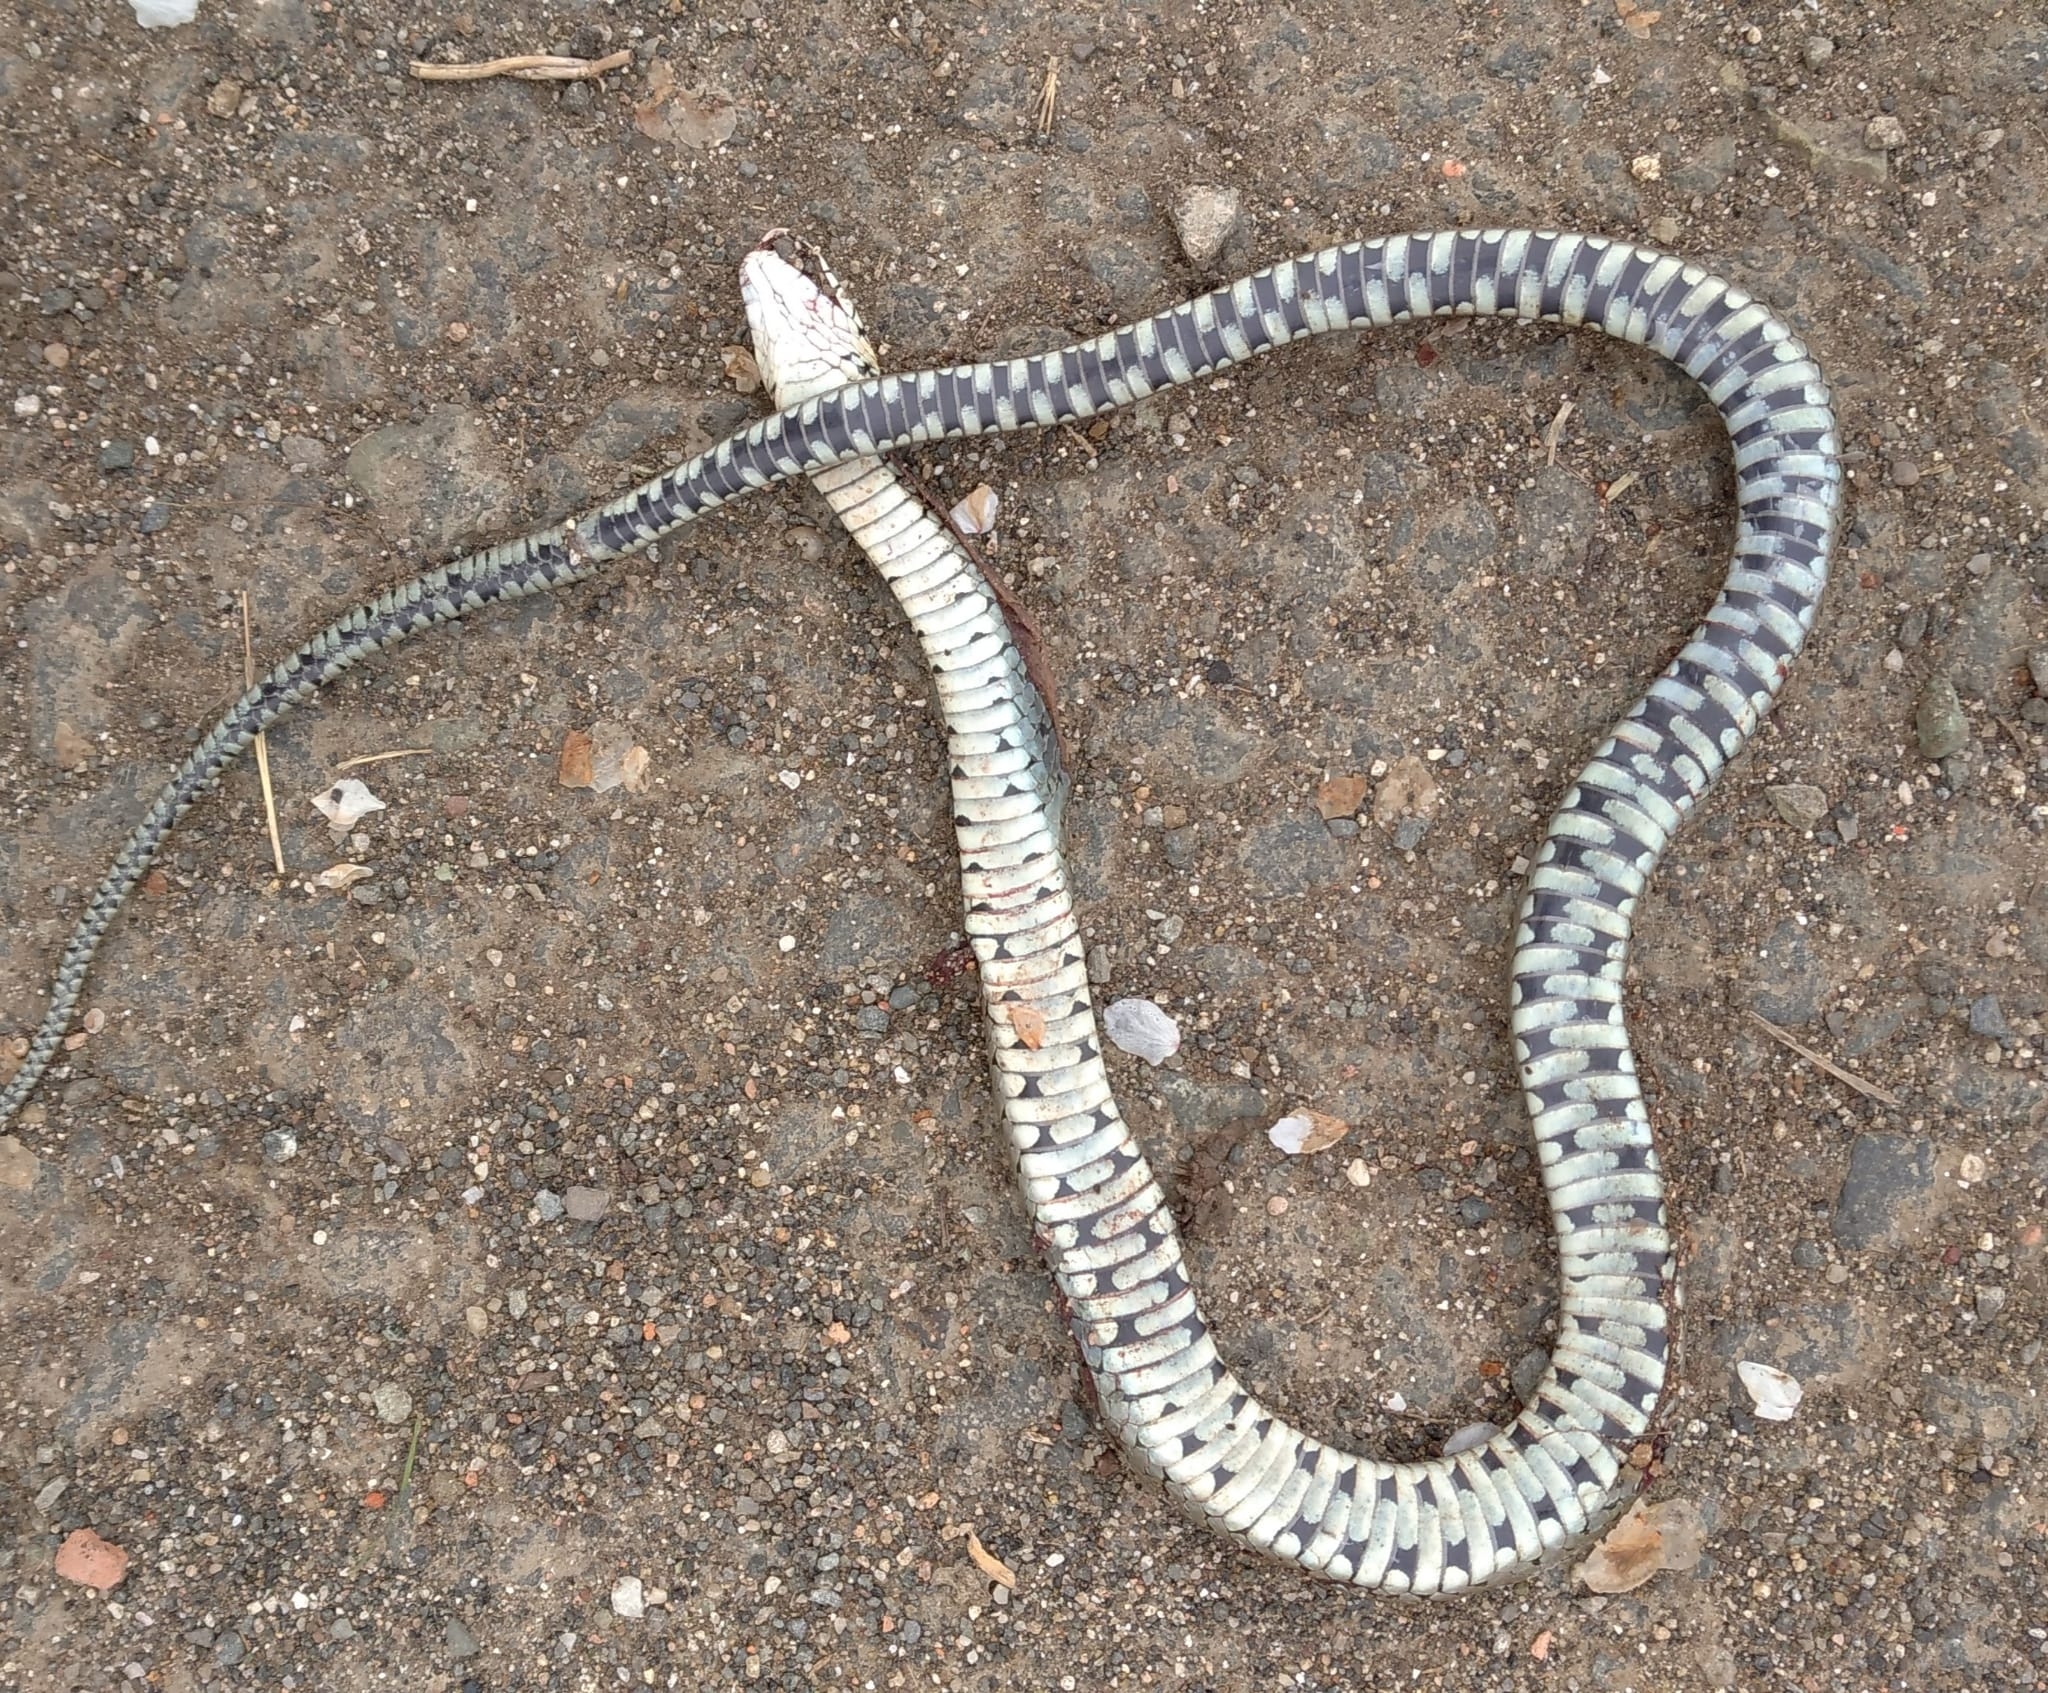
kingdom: Animalia
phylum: Chordata
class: Squamata
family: Colubridae
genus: Natrix
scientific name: Natrix natrix
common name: Grass snake
